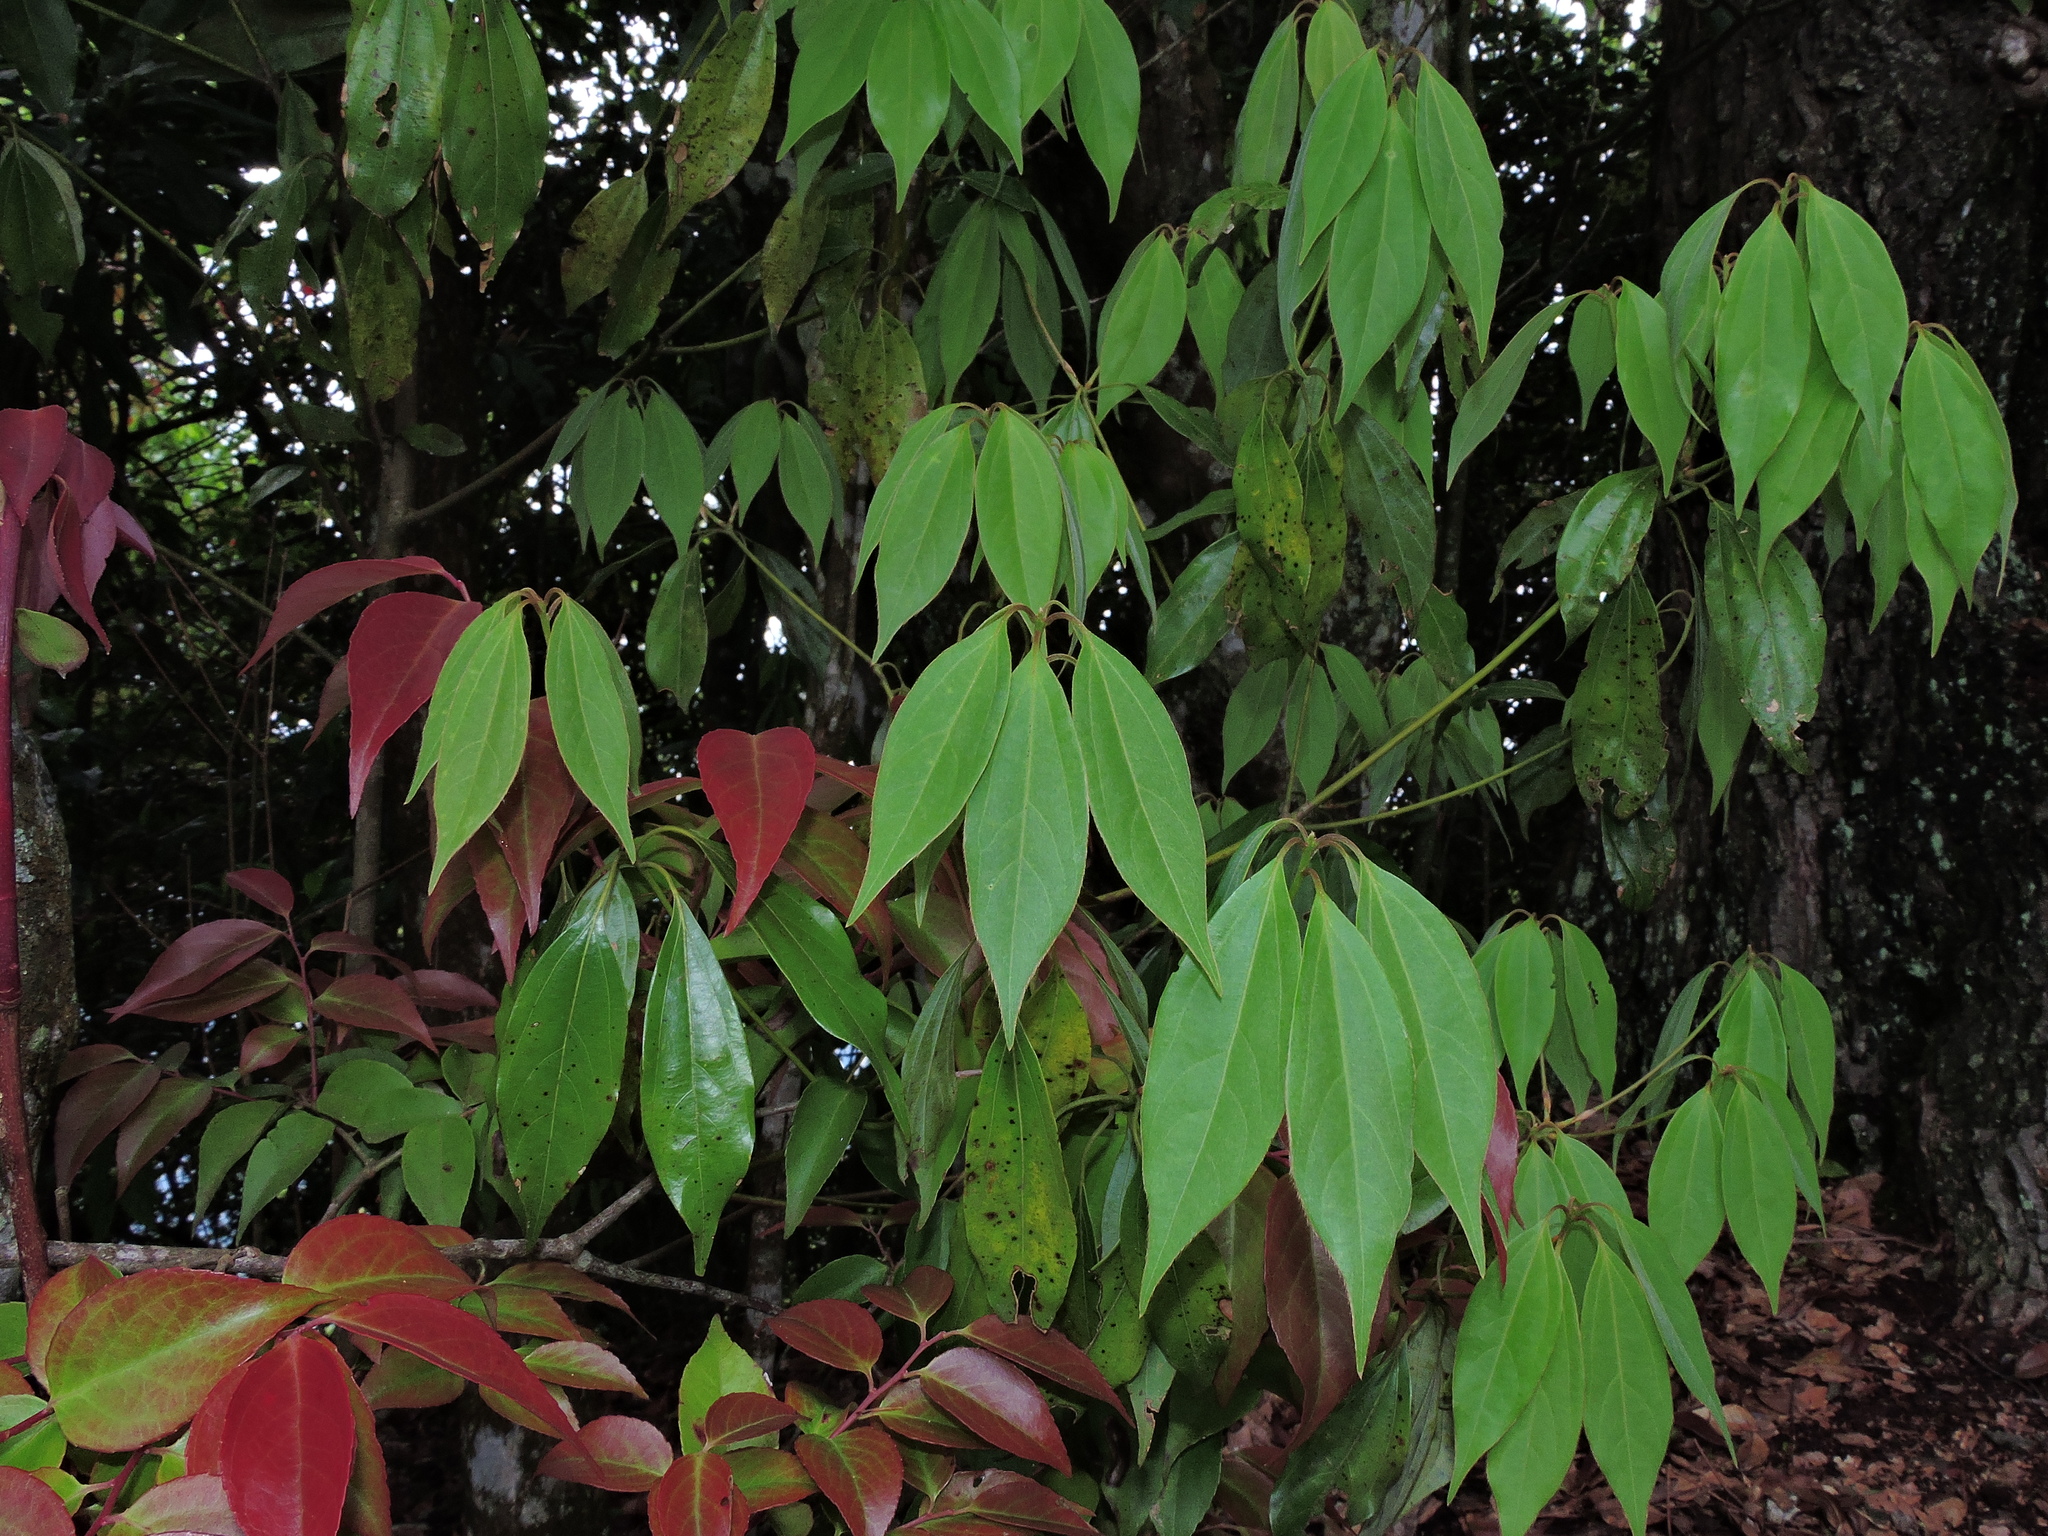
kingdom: Plantae
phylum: Tracheophyta
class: Magnoliopsida
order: Laurales
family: Lauraceae
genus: Neolitsea
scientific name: Neolitsea variabillima
